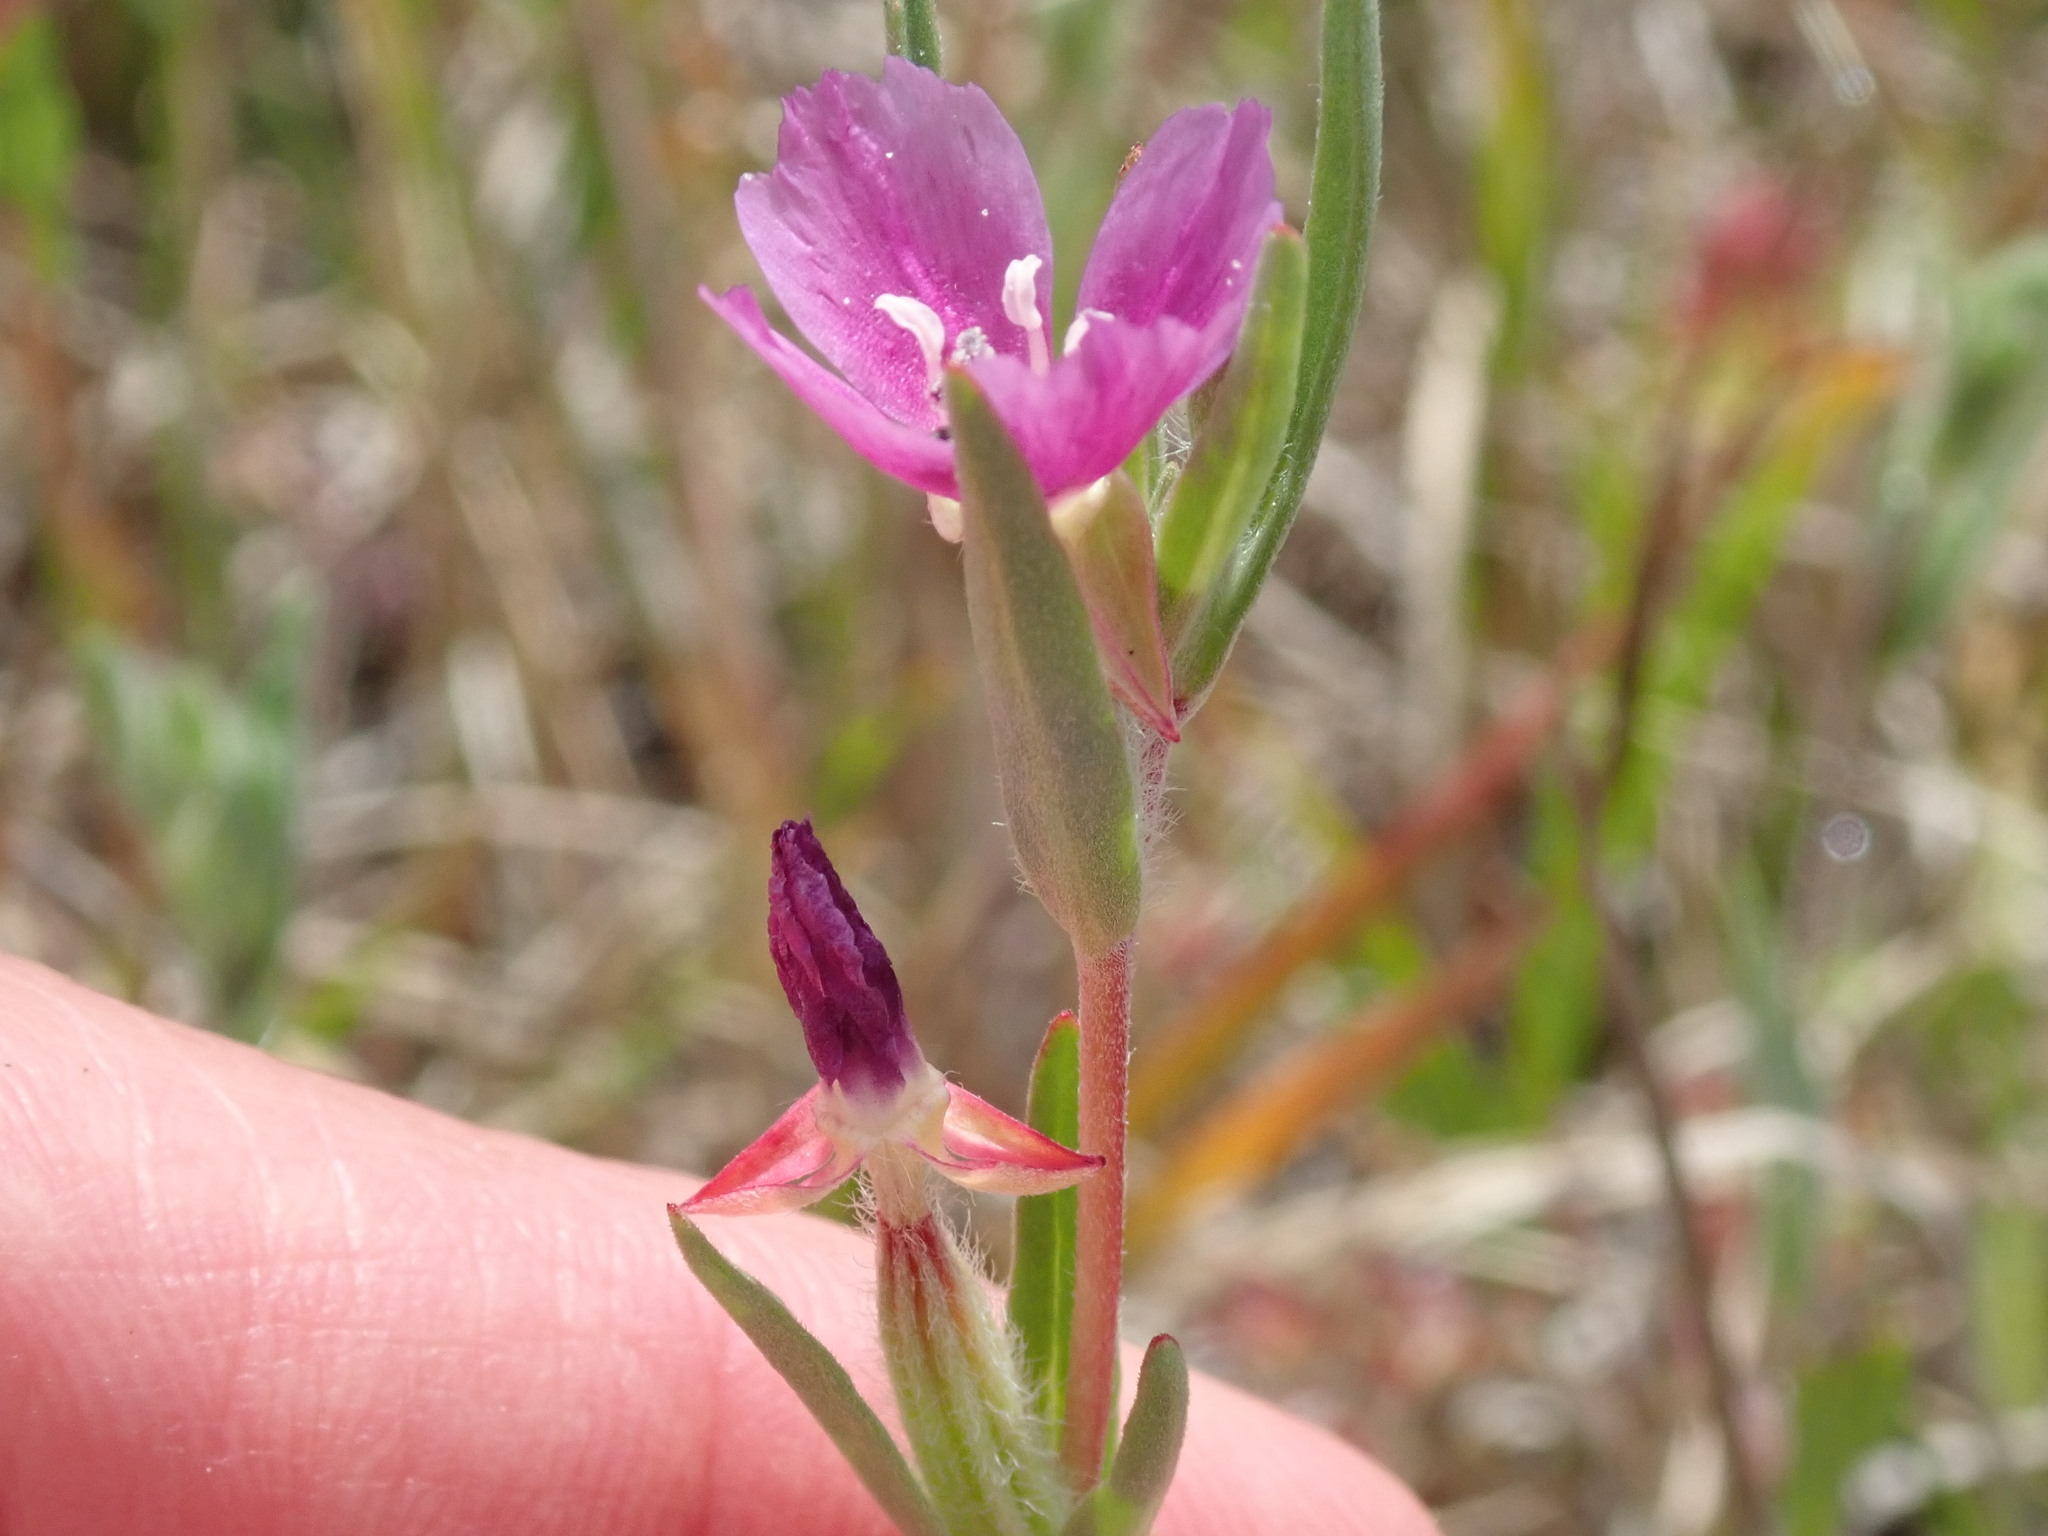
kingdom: Plantae
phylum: Tracheophyta
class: Magnoliopsida
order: Myrtales
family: Onagraceae
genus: Clarkia
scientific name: Clarkia purpurea
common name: Purple clarkia
